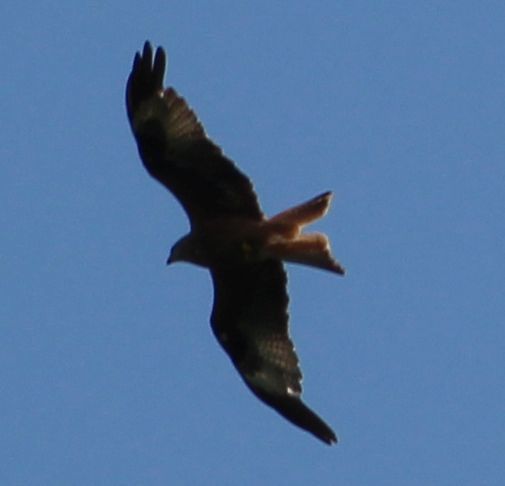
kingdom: Animalia
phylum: Chordata
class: Aves
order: Accipitriformes
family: Accipitridae
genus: Milvus
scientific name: Milvus milvus
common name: Red kite
